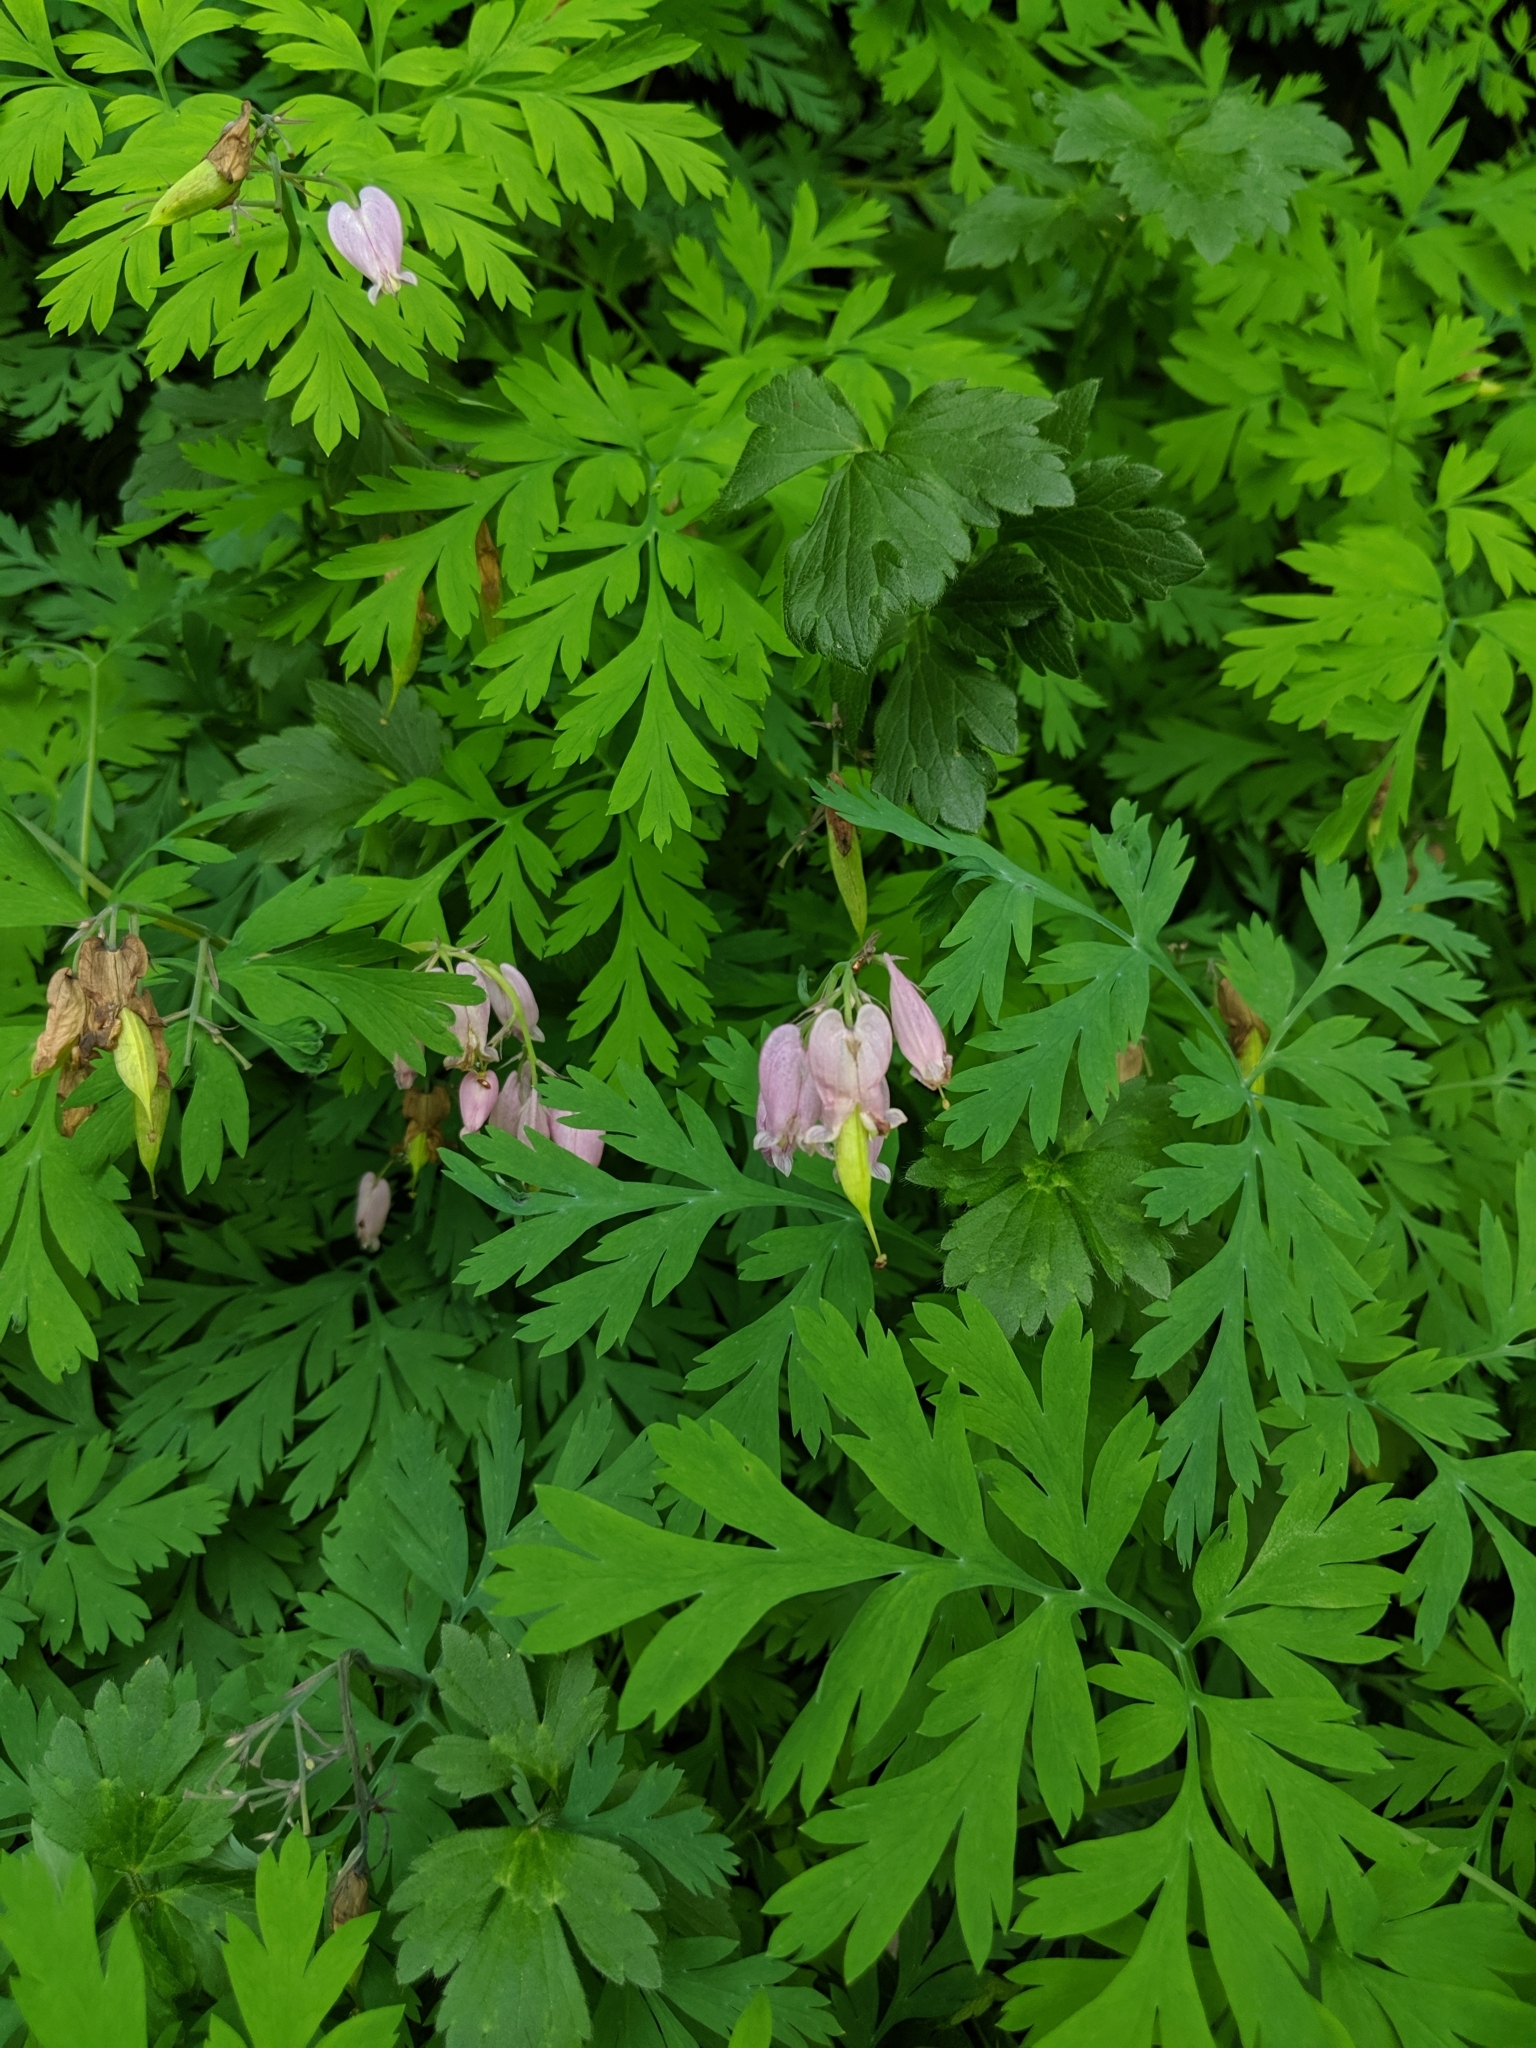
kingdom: Plantae
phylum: Tracheophyta
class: Magnoliopsida
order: Ranunculales
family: Papaveraceae
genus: Dicentra
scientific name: Dicentra formosa
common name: Bleeding-heart
